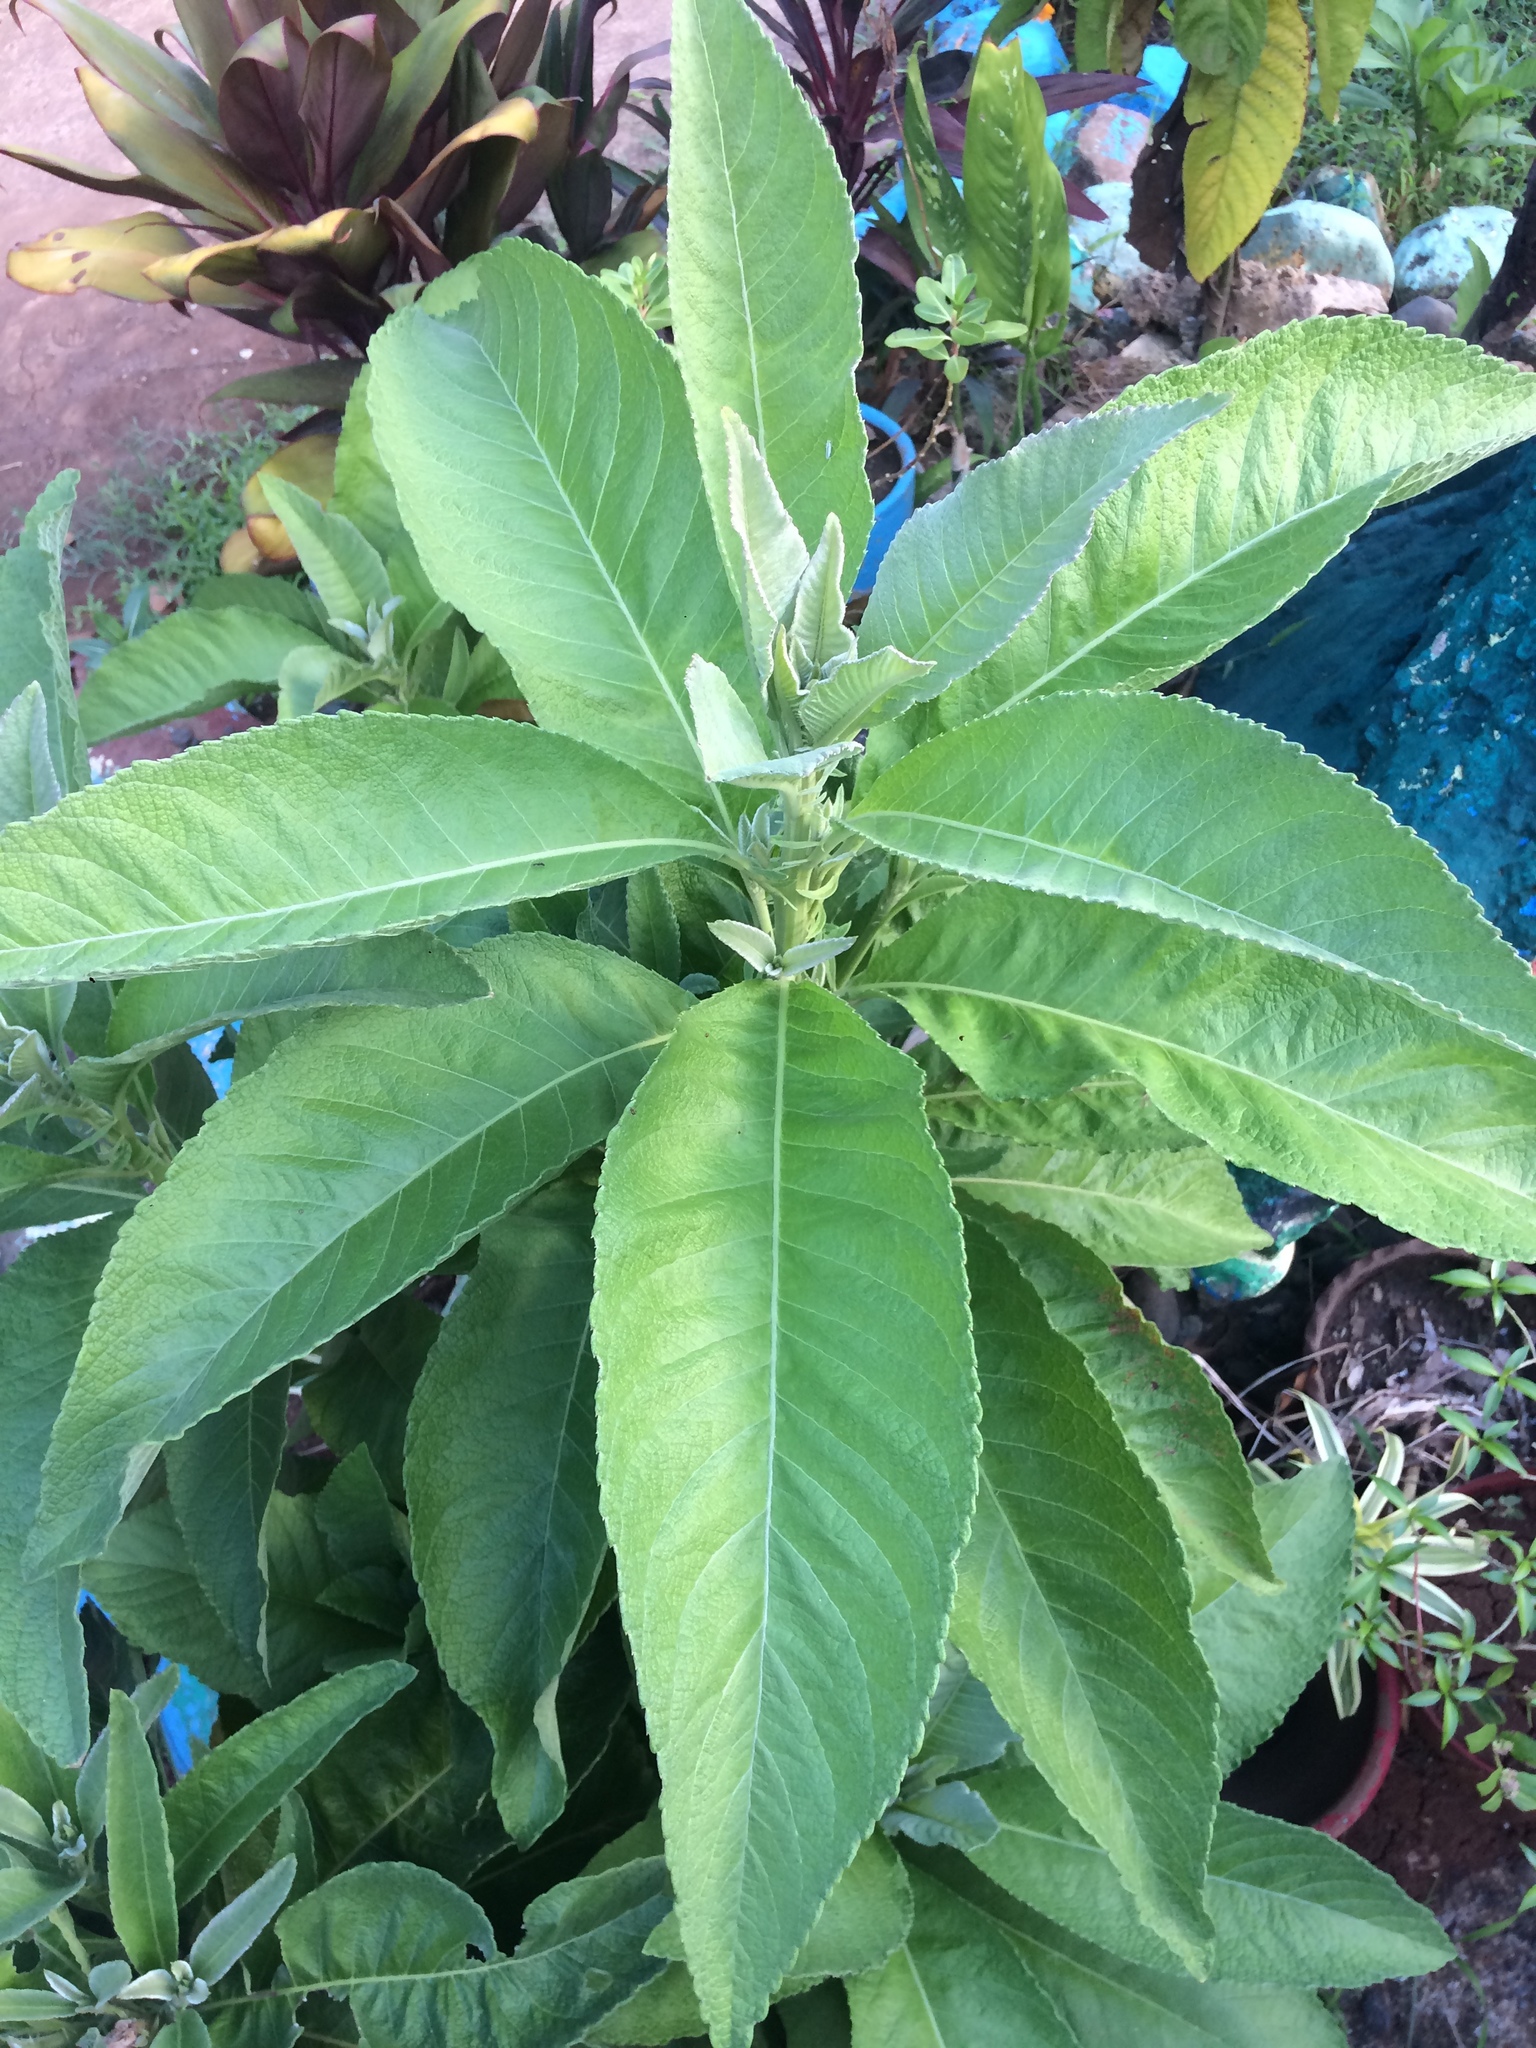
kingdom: Plantae
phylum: Tracheophyta
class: Magnoliopsida
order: Asterales
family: Asteraceae
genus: Blumea
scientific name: Blumea balsamifera
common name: Ngai camphor
